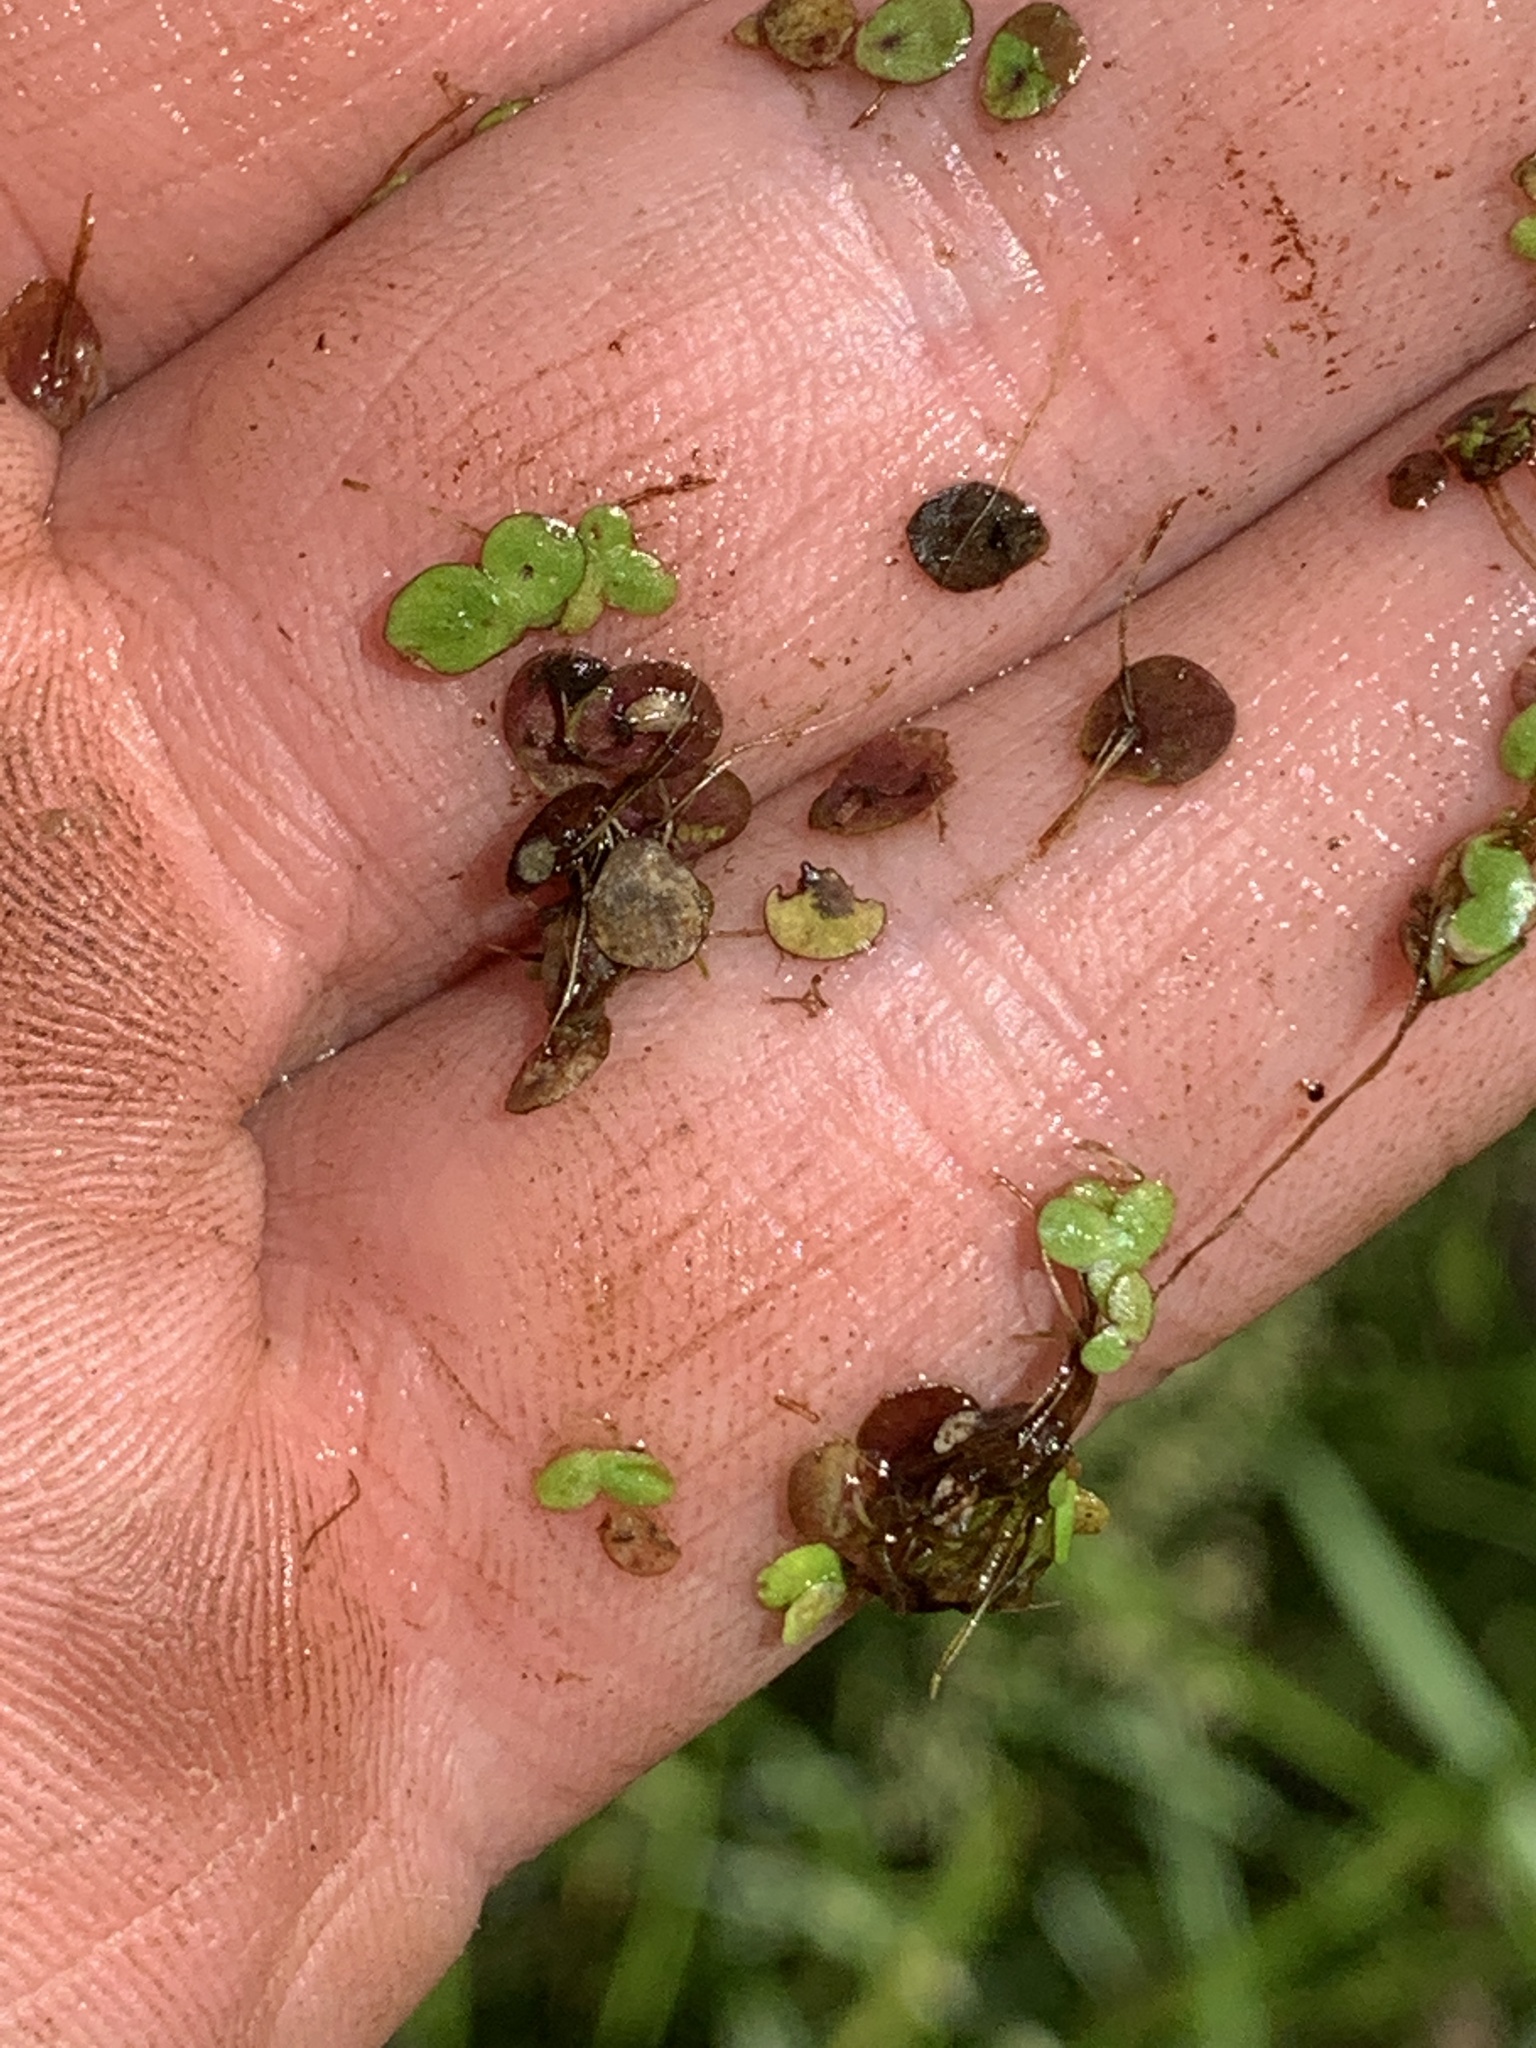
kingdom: Plantae
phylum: Tracheophyta
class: Liliopsida
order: Alismatales
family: Araceae
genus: Spirodela
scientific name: Spirodela polyrhiza
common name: Great duckweed
